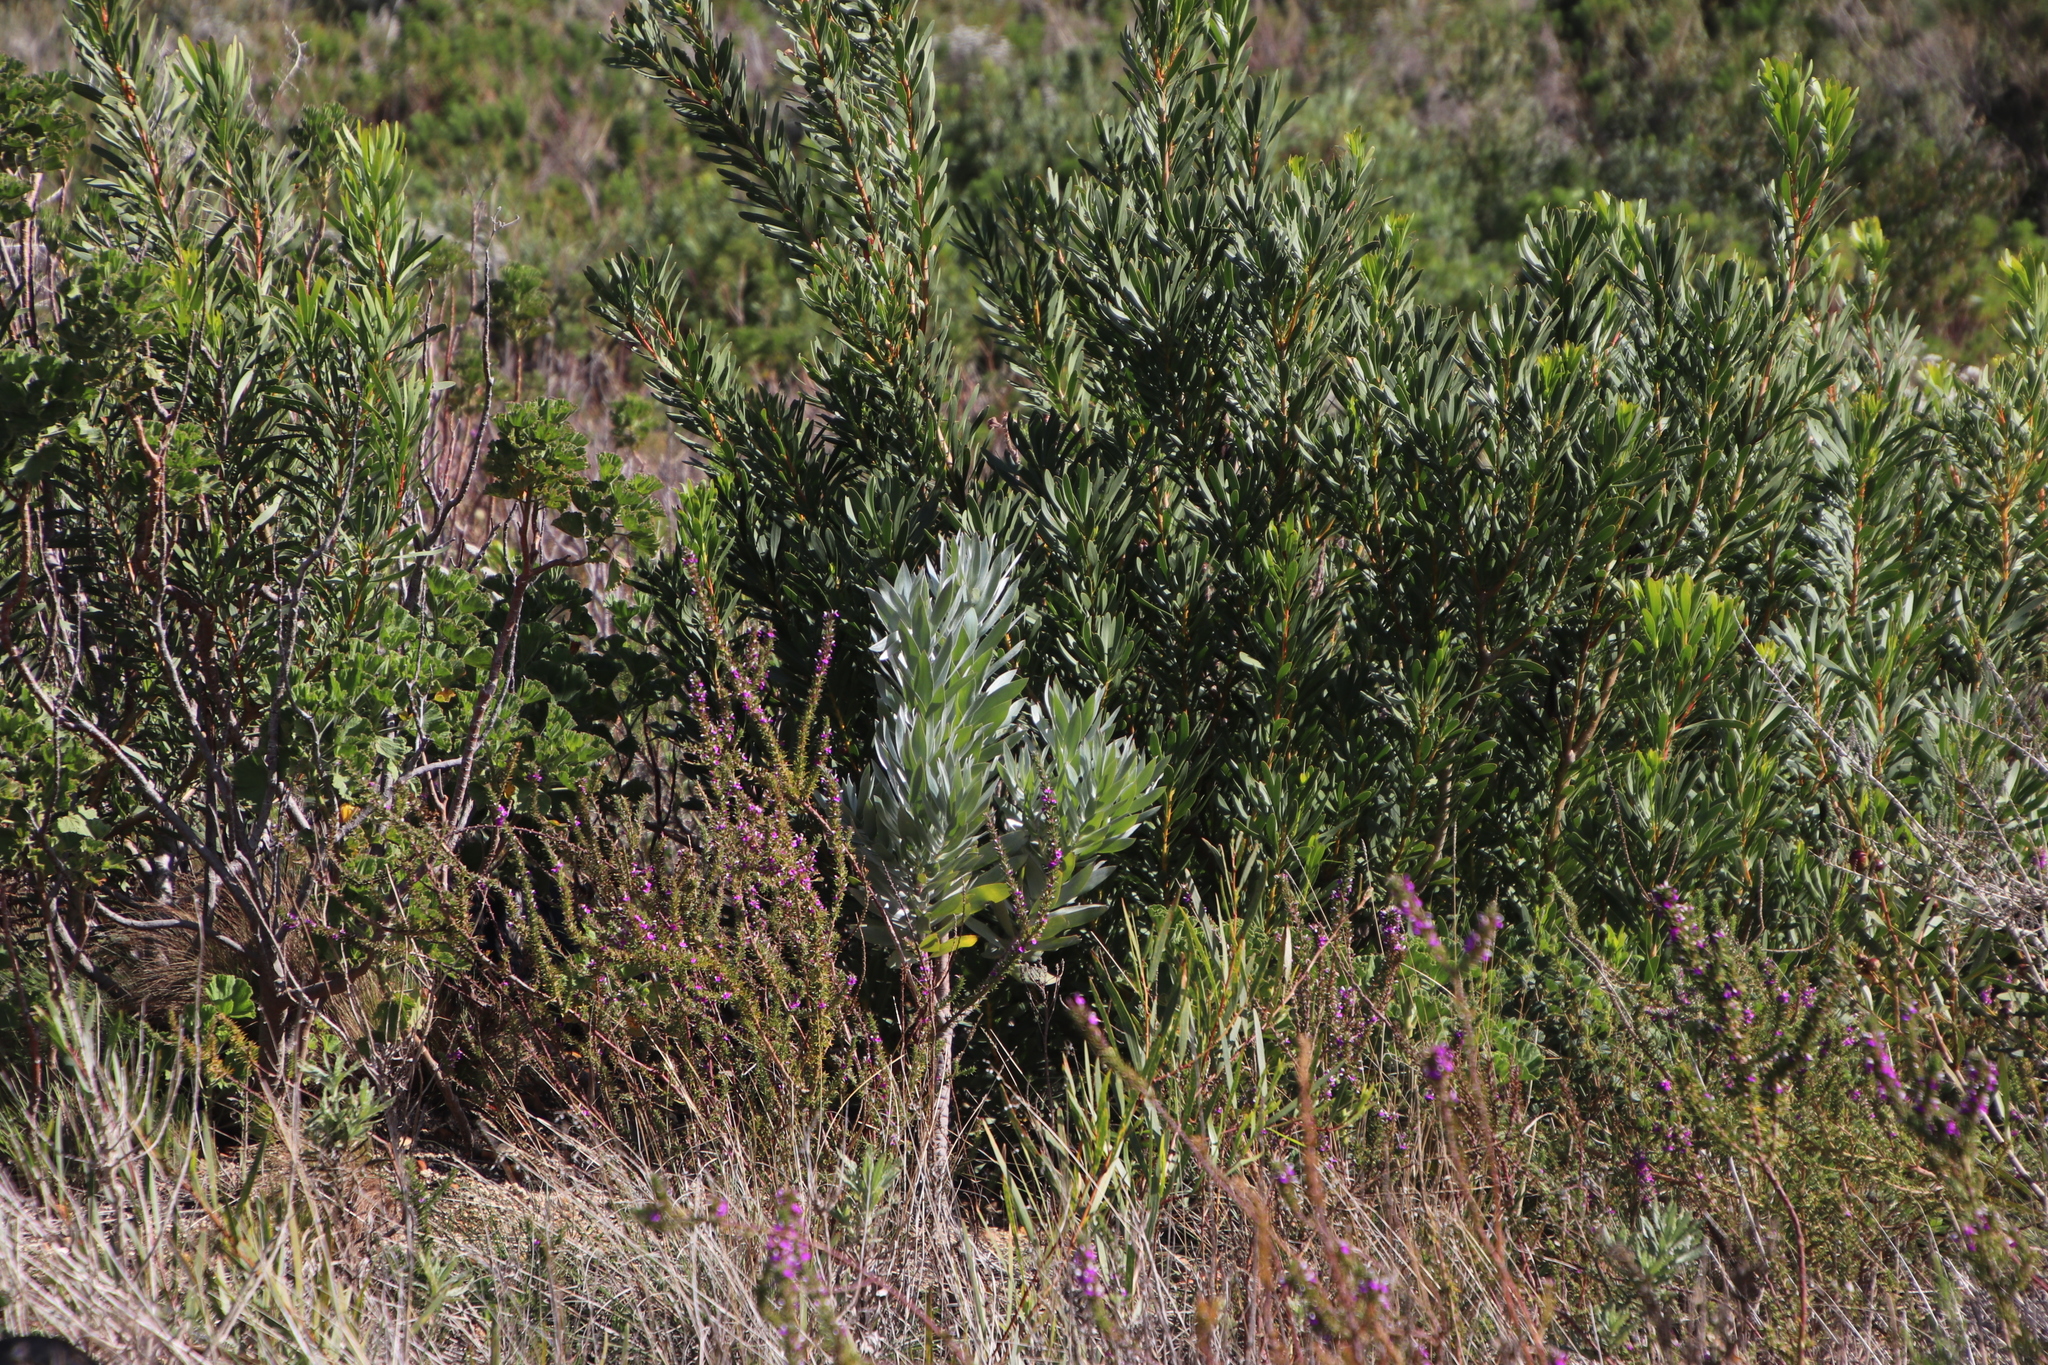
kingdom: Plantae
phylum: Tracheophyta
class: Magnoliopsida
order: Proteales
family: Proteaceae
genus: Leucadendron
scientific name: Leucadendron argenteum
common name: Cape silver tree
